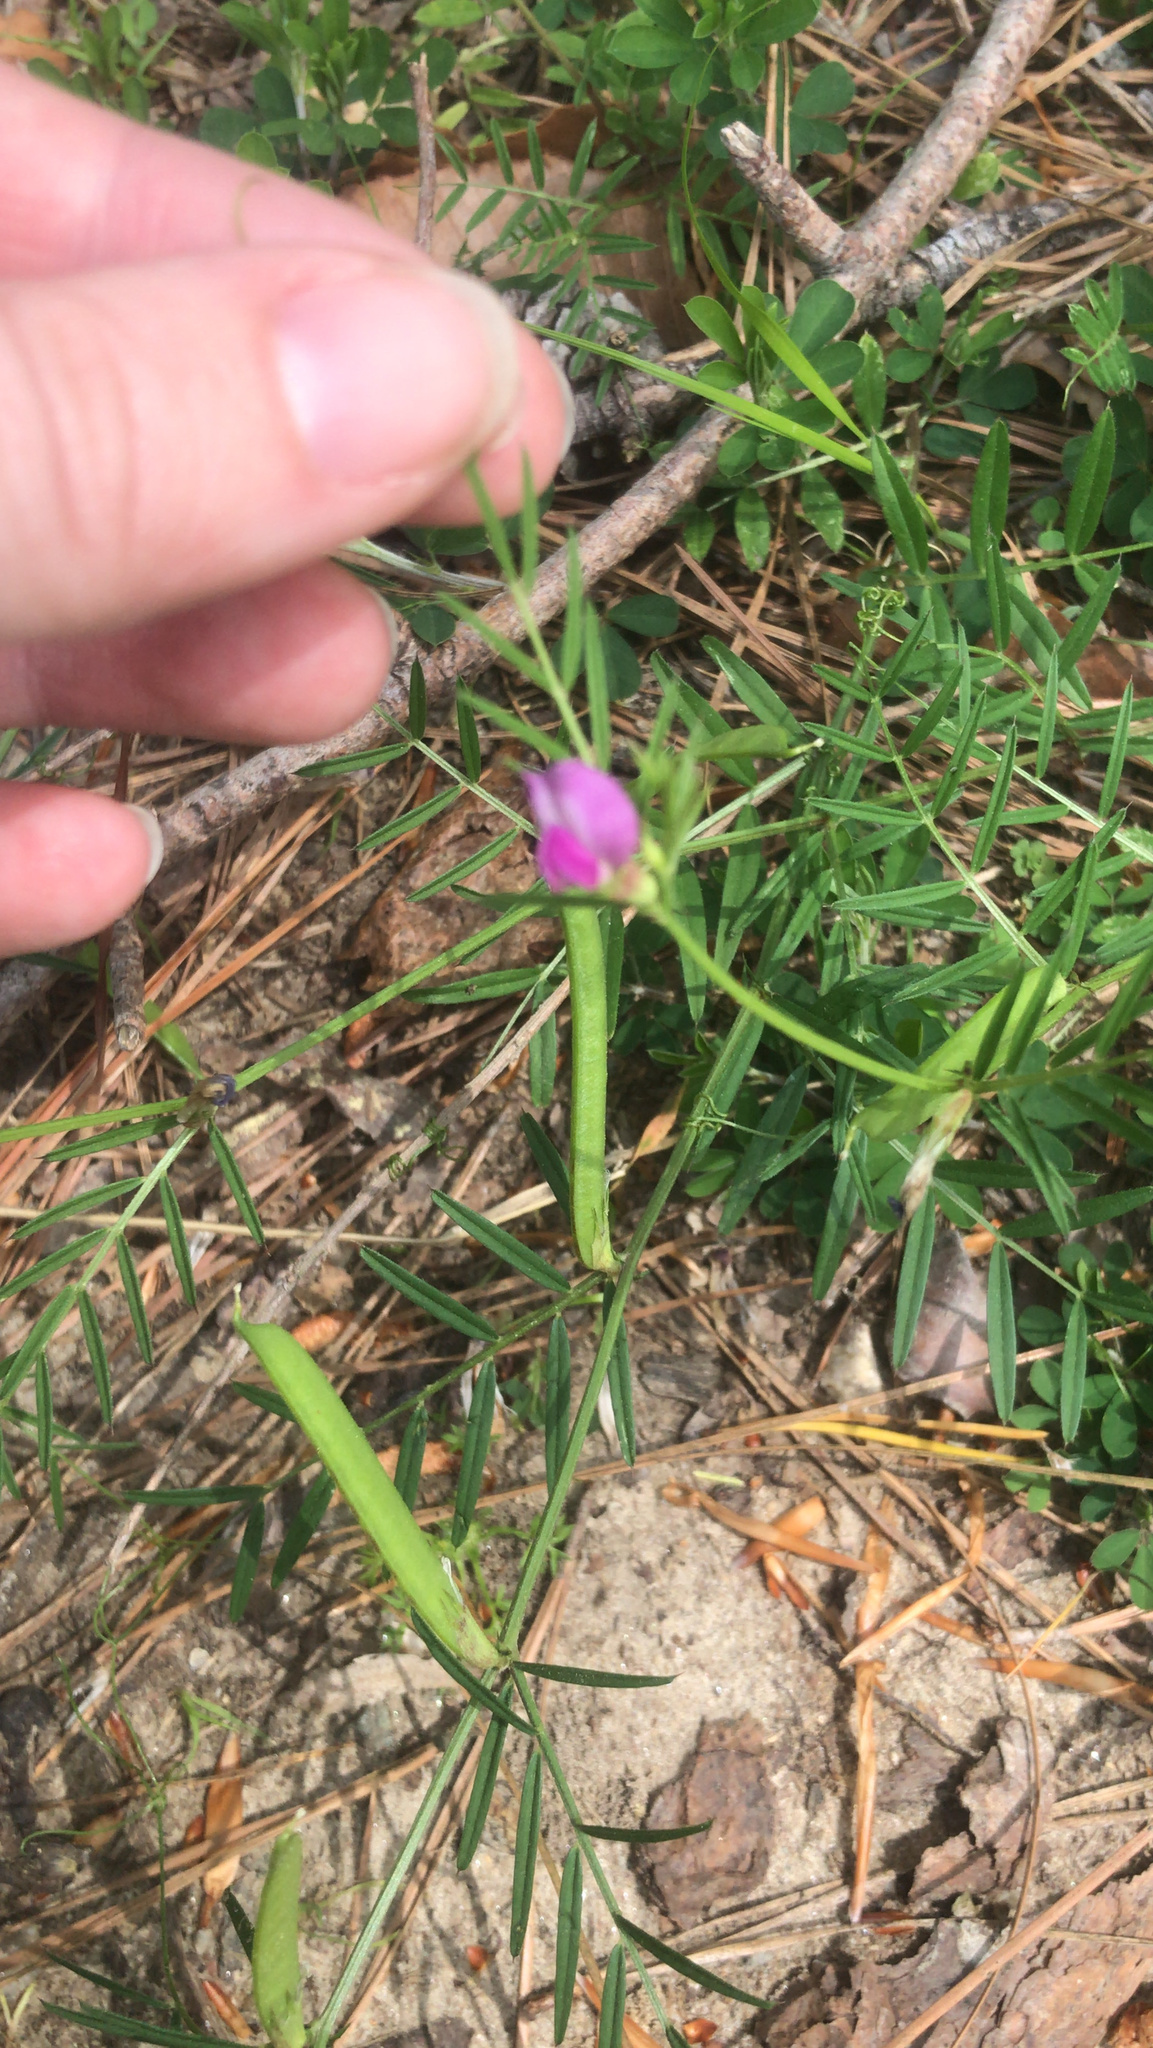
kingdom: Plantae
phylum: Tracheophyta
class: Magnoliopsida
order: Fabales
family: Fabaceae
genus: Vicia
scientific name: Vicia sativa
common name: Garden vetch
